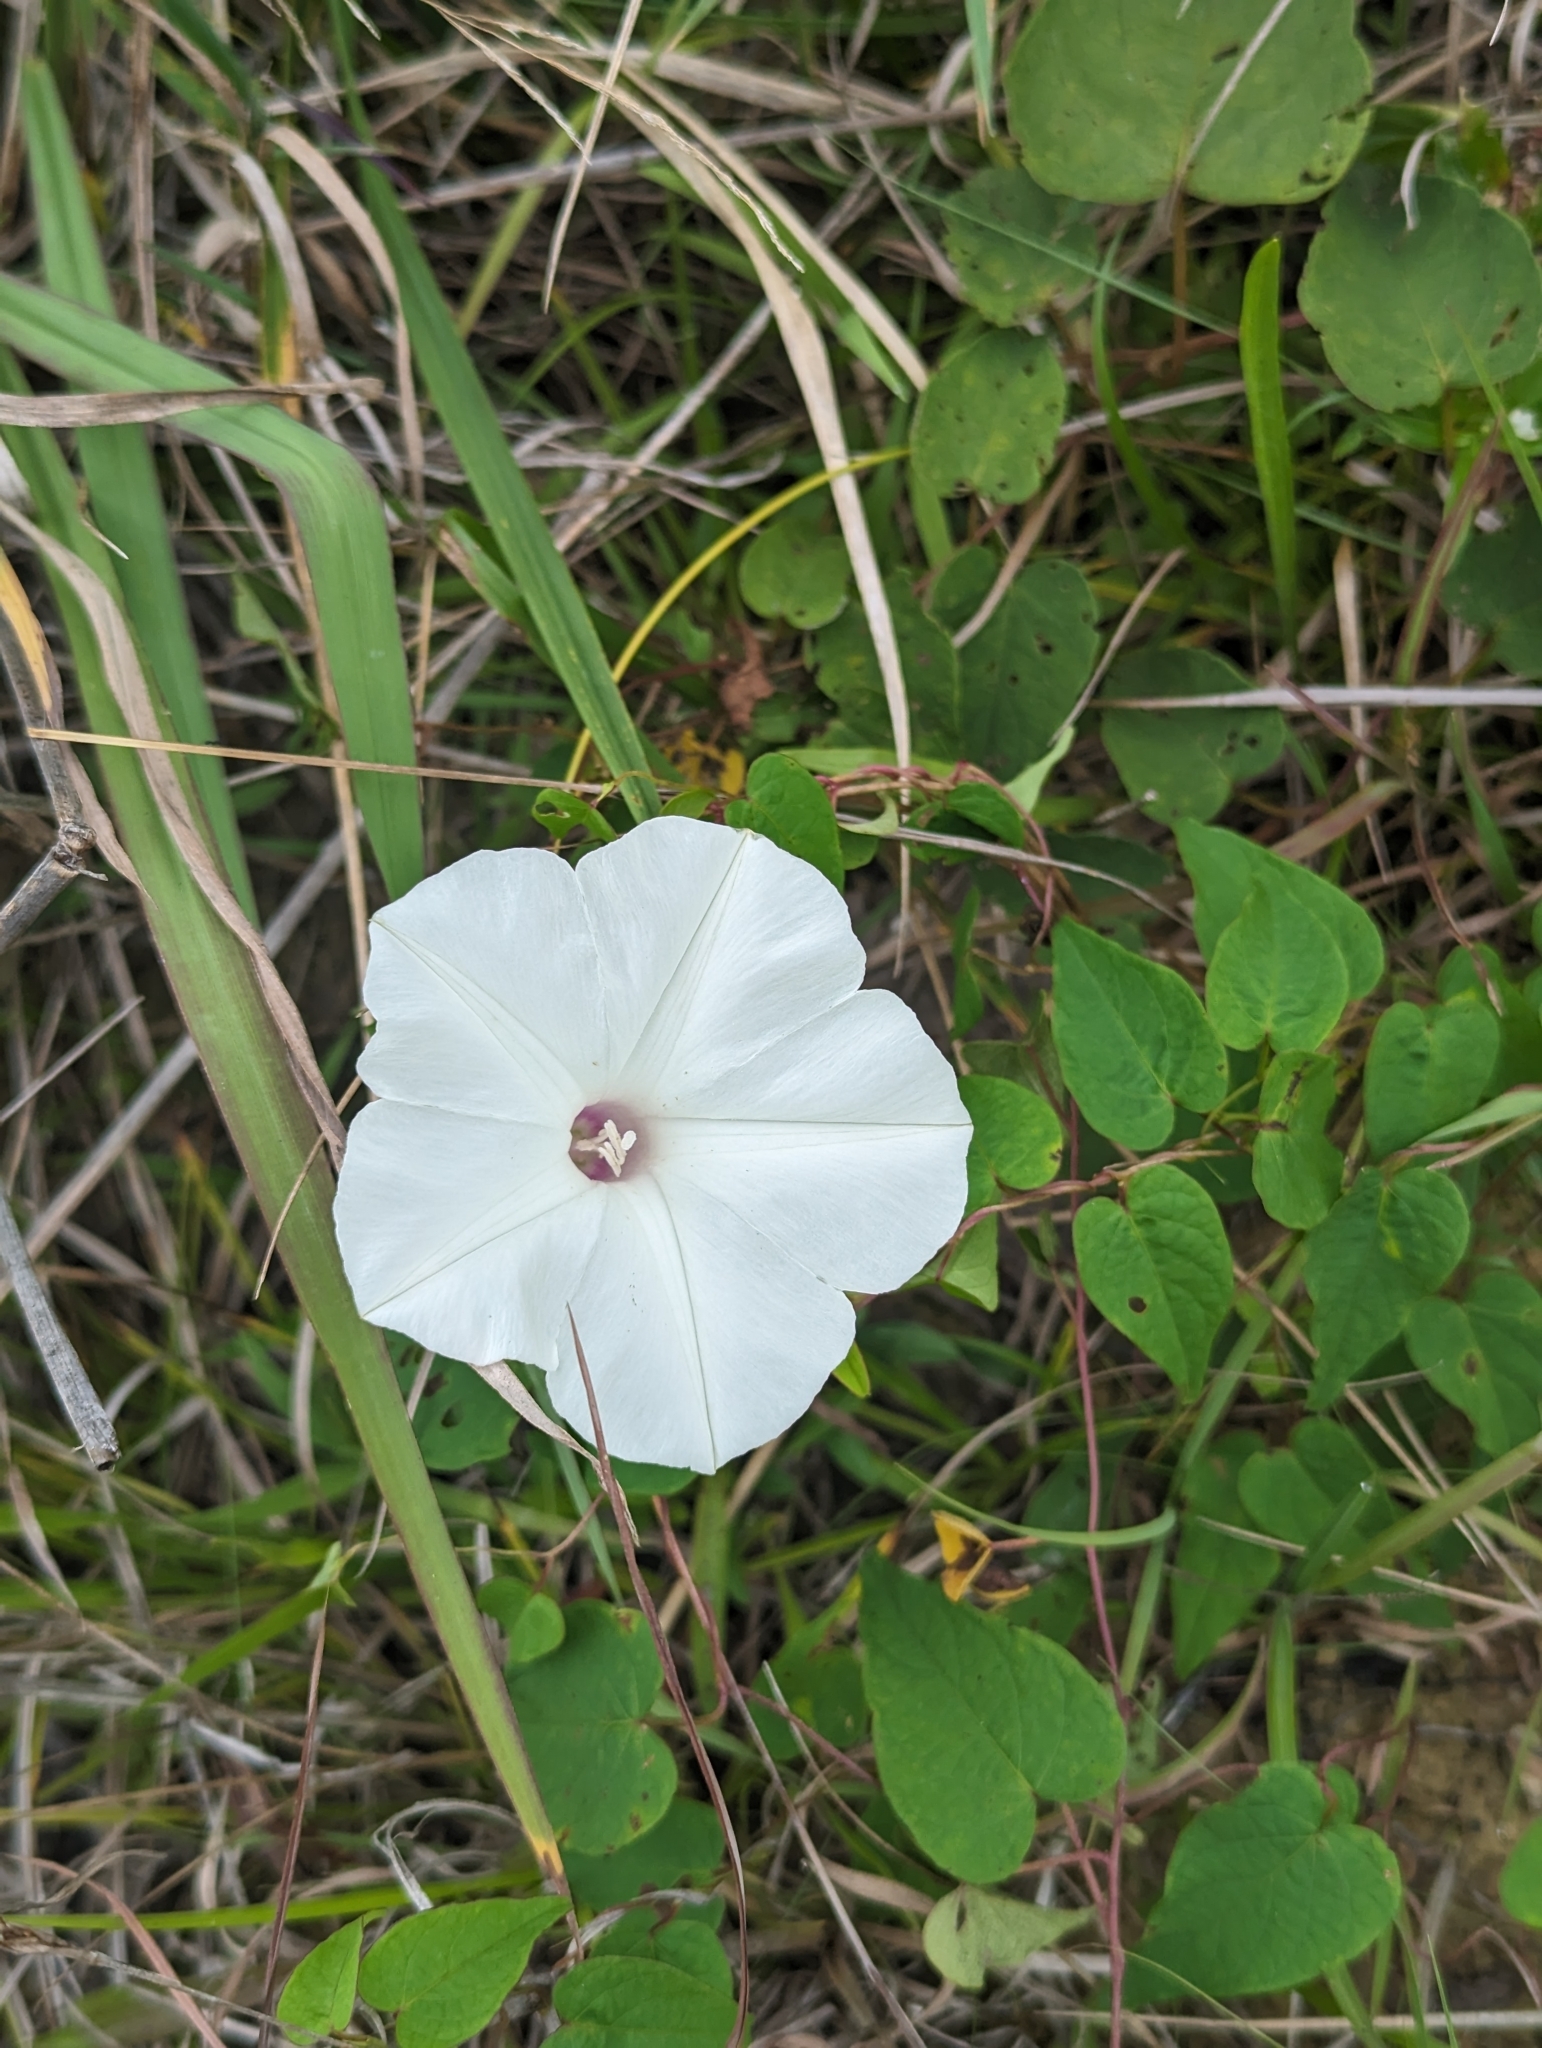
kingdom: Plantae
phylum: Tracheophyta
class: Magnoliopsida
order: Solanales
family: Convolvulaceae
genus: Ipomoea
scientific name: Ipomoea pandurata
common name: Man-of-the-earth
